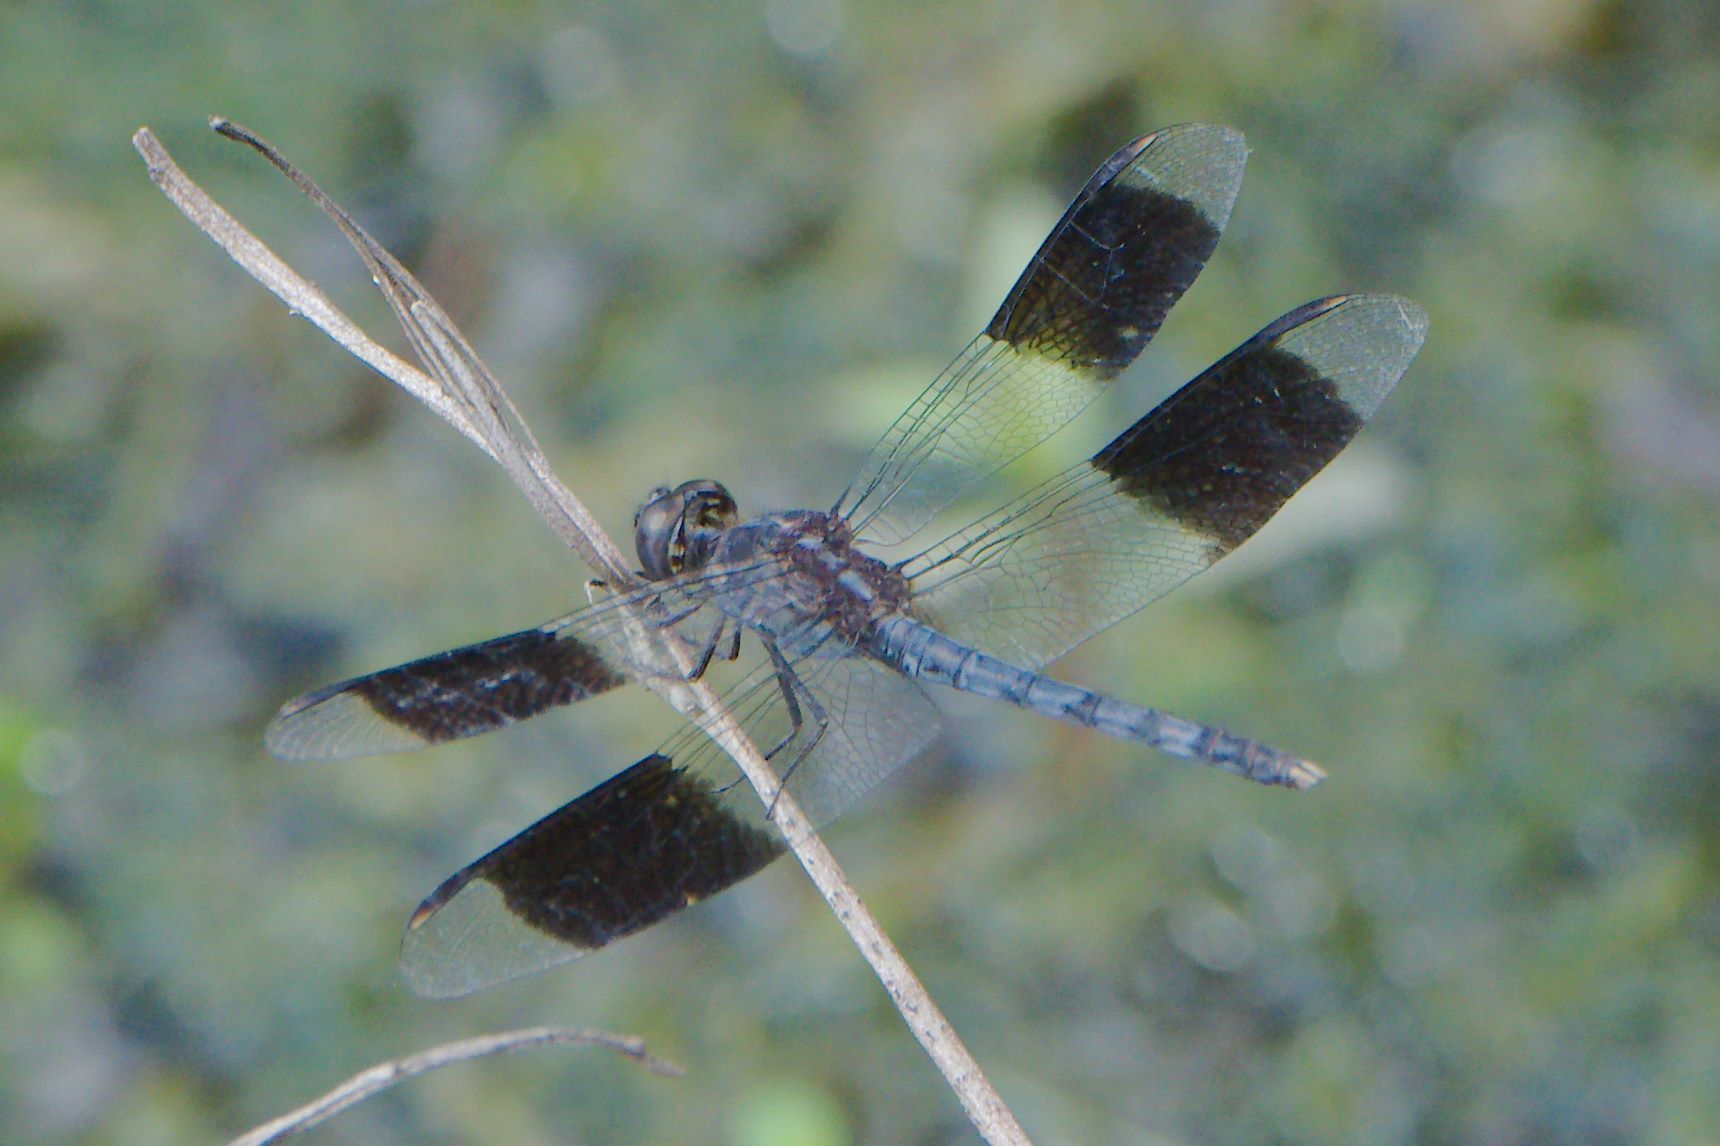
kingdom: Animalia
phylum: Arthropoda
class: Insecta
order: Odonata
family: Libellulidae
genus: Erythrodiplax
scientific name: Erythrodiplax umbrata
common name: Band-winged dragonlet
